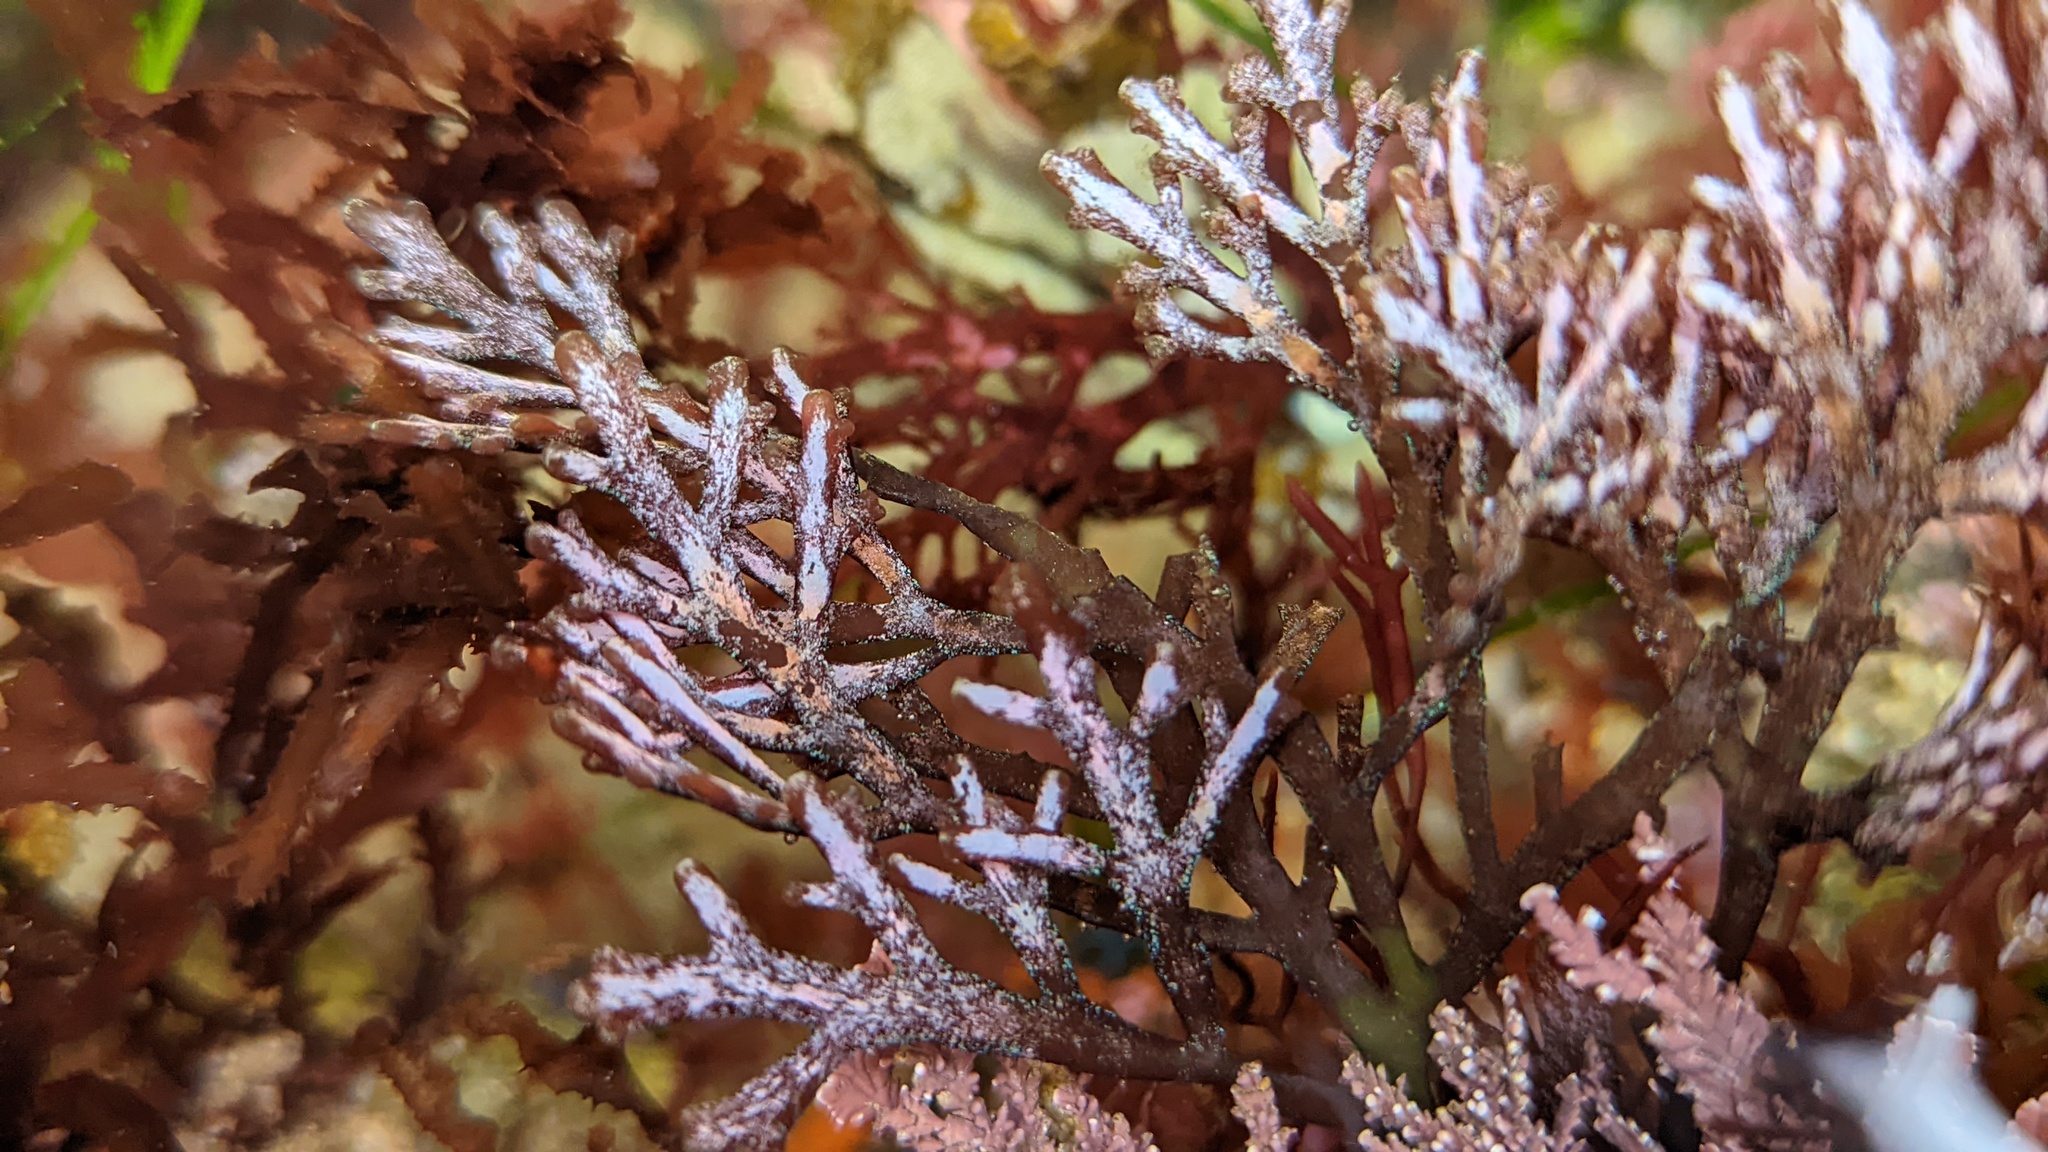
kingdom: Plantae
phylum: Rhodophyta
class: Florideophyceae
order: Ceramiales
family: Rhodomelaceae
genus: Osmundea
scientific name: Osmundea spectabilis
